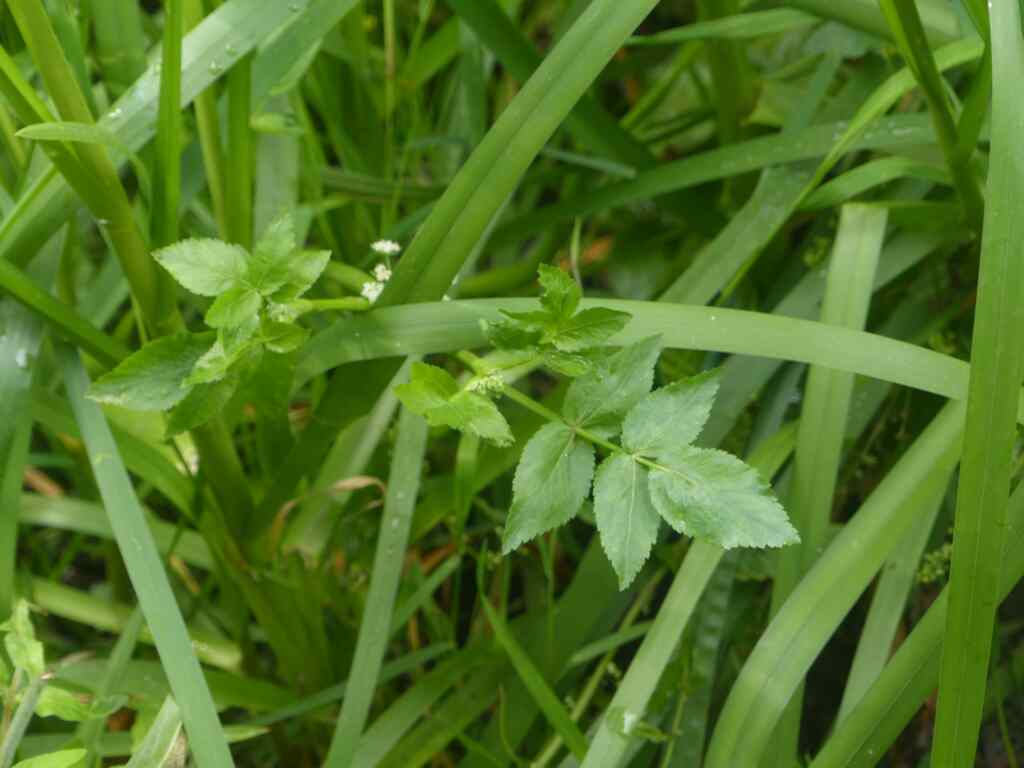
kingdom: Plantae
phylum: Tracheophyta
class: Magnoliopsida
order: Apiales
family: Apiaceae
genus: Helosciadium
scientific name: Helosciadium nodiflorum
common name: Fool's-watercress
